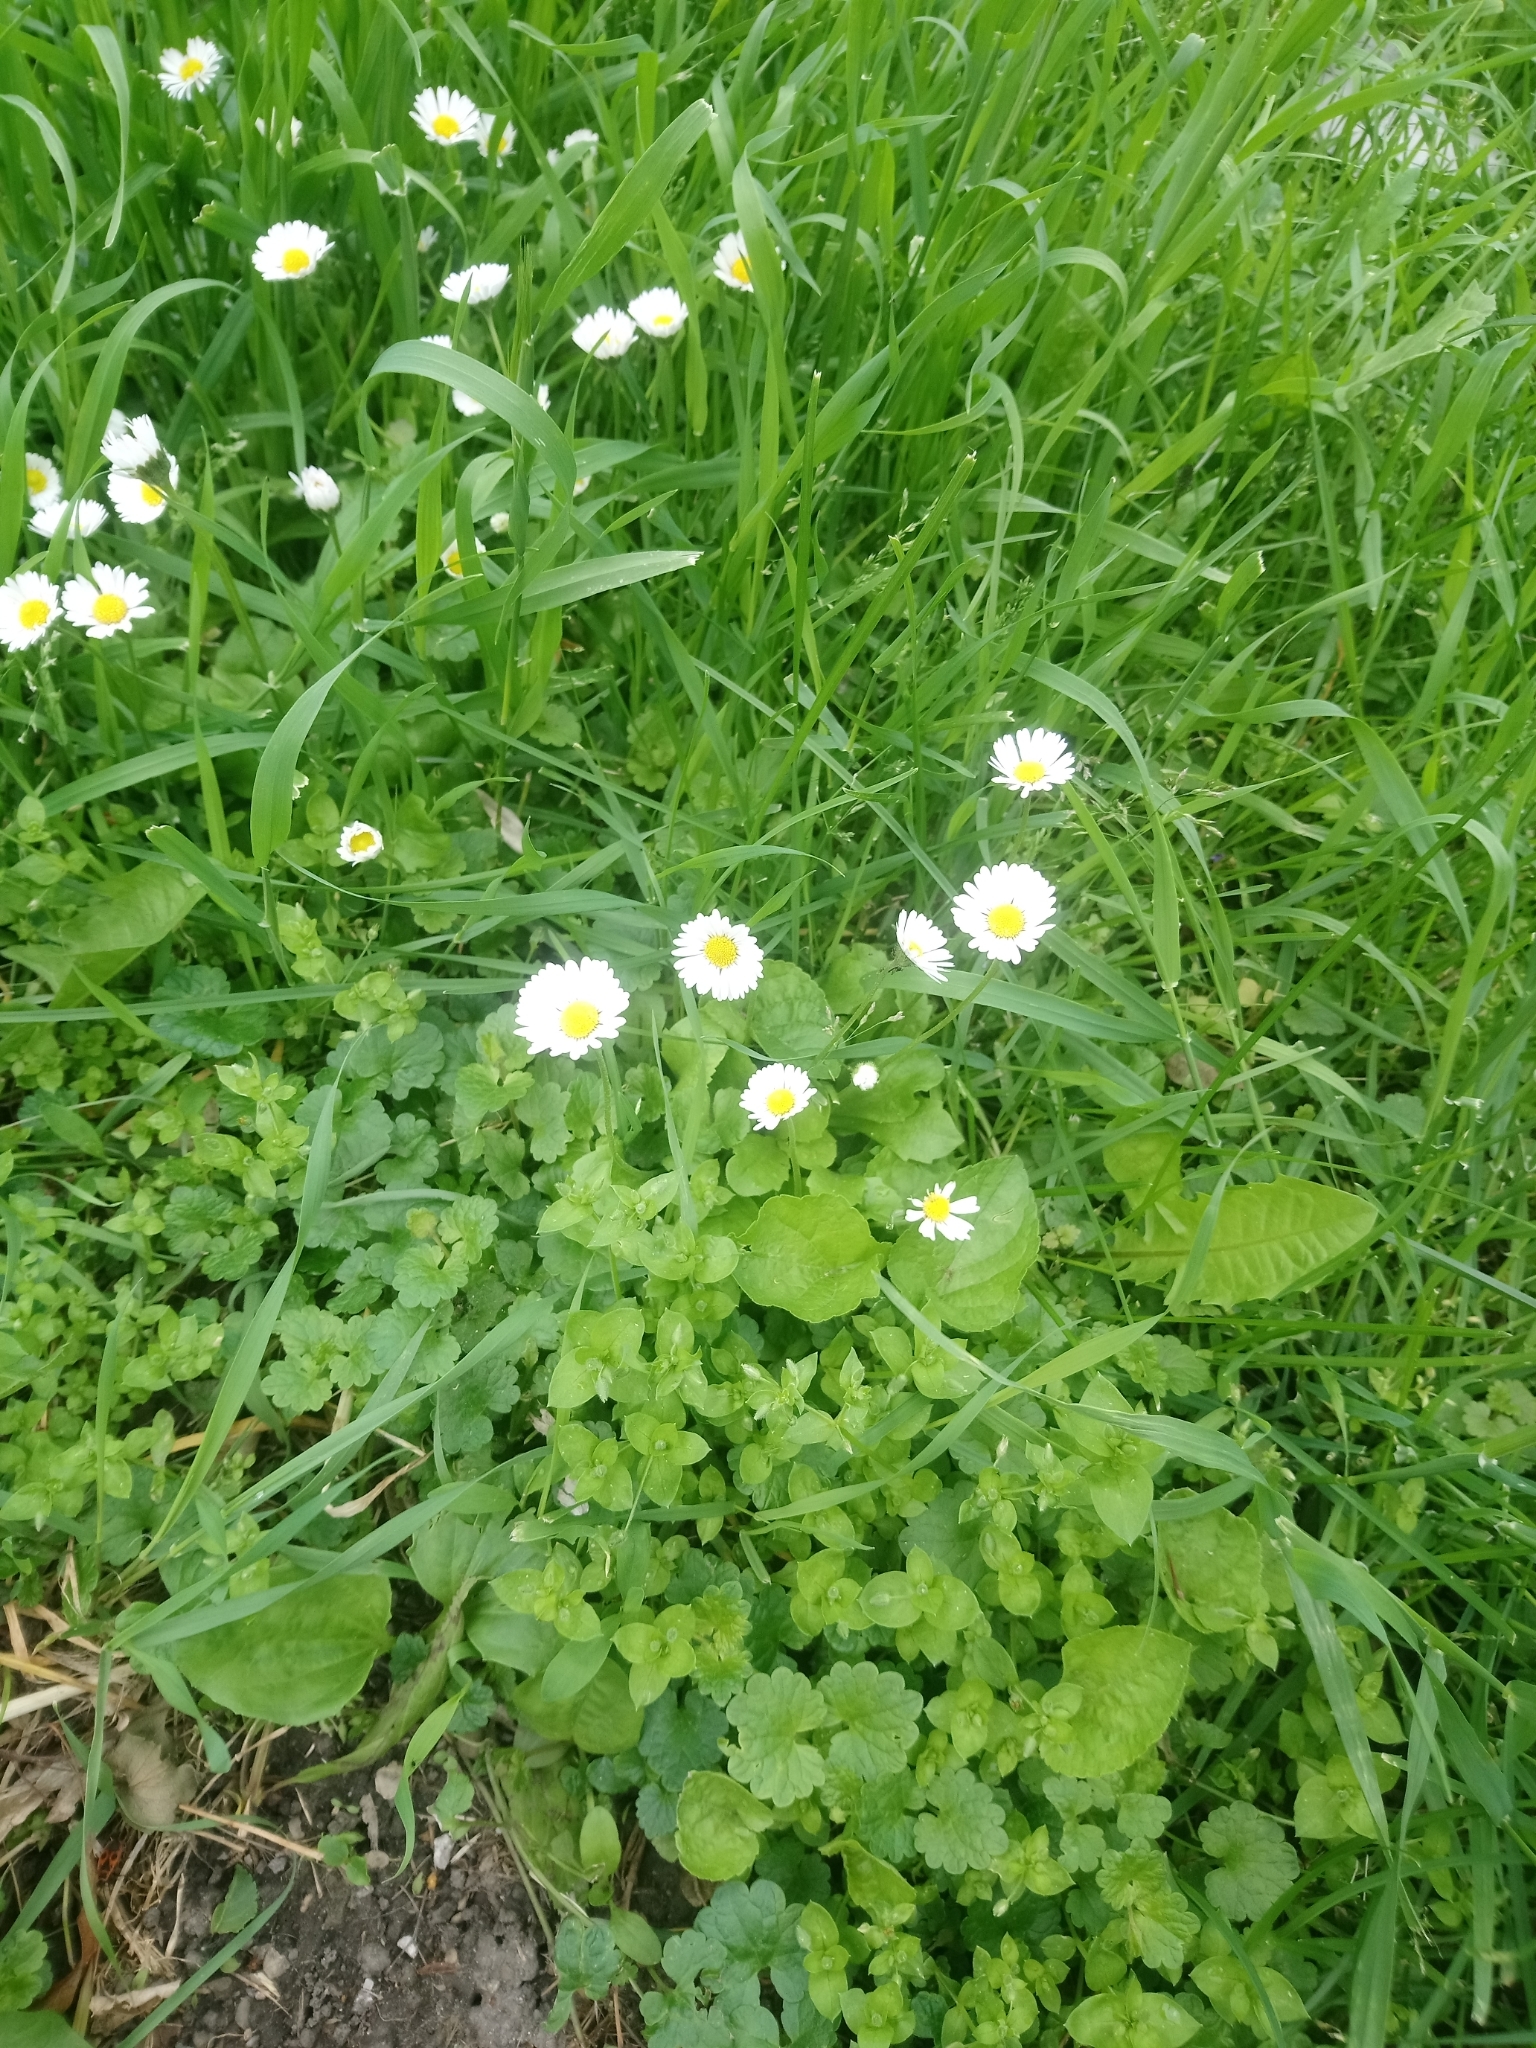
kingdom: Plantae
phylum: Tracheophyta
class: Magnoliopsida
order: Asterales
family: Asteraceae
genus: Bellis
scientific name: Bellis perennis
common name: Lawndaisy
